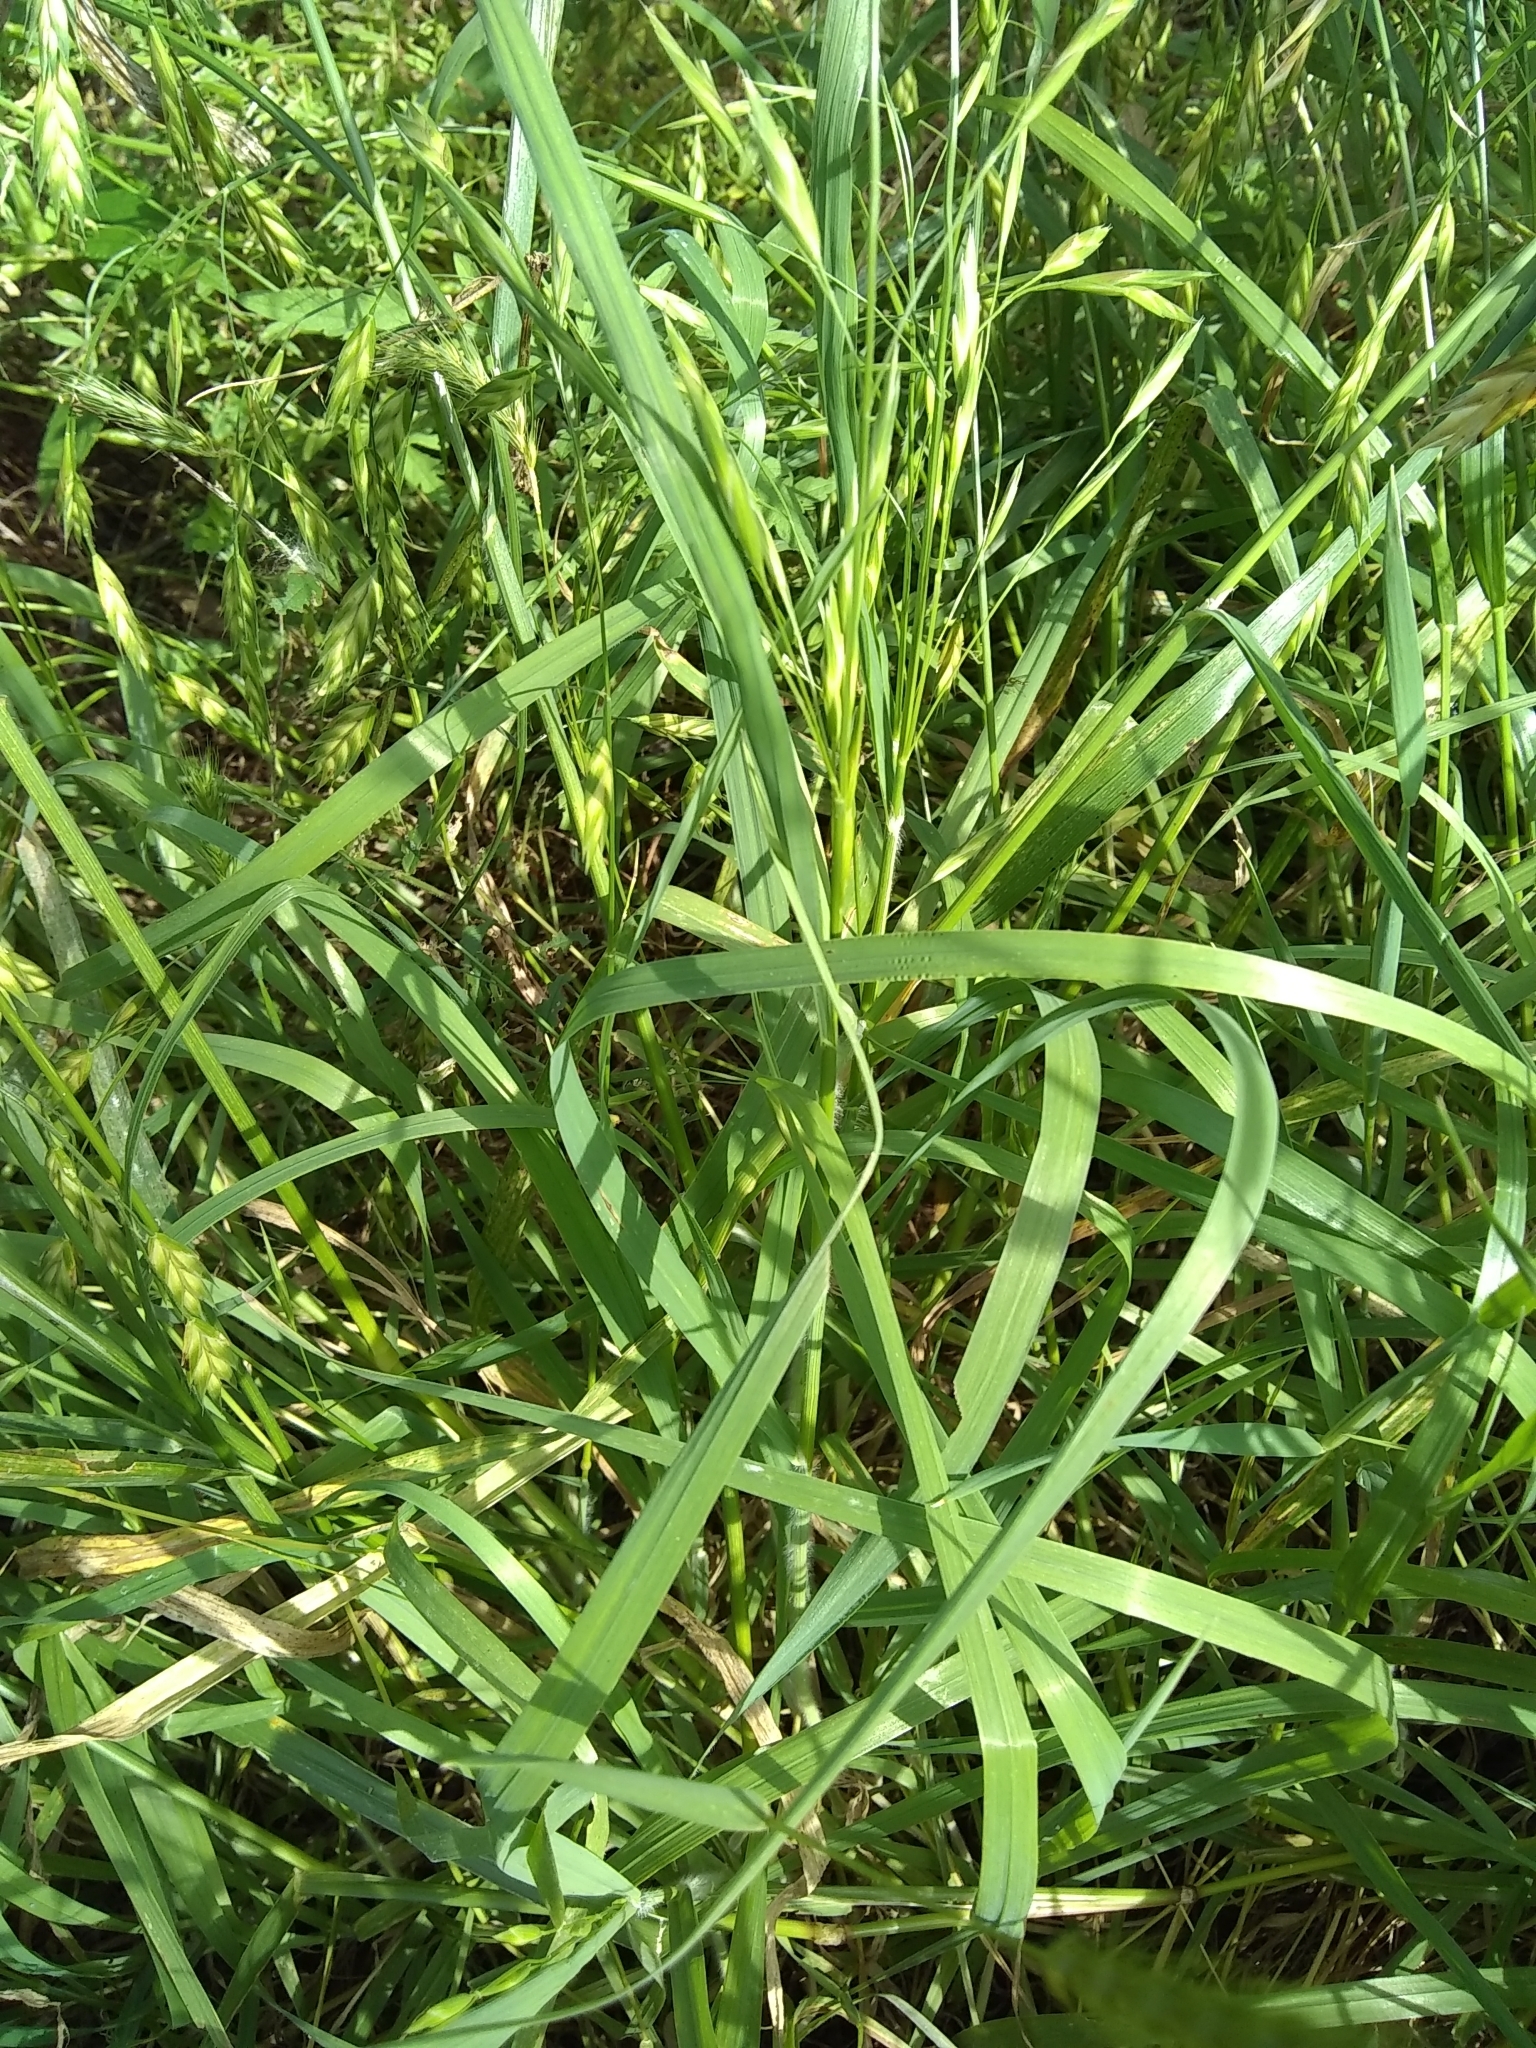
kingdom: Plantae
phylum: Tracheophyta
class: Liliopsida
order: Poales
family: Poaceae
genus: Bromus
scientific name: Bromus catharticus
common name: Rescuegrass
